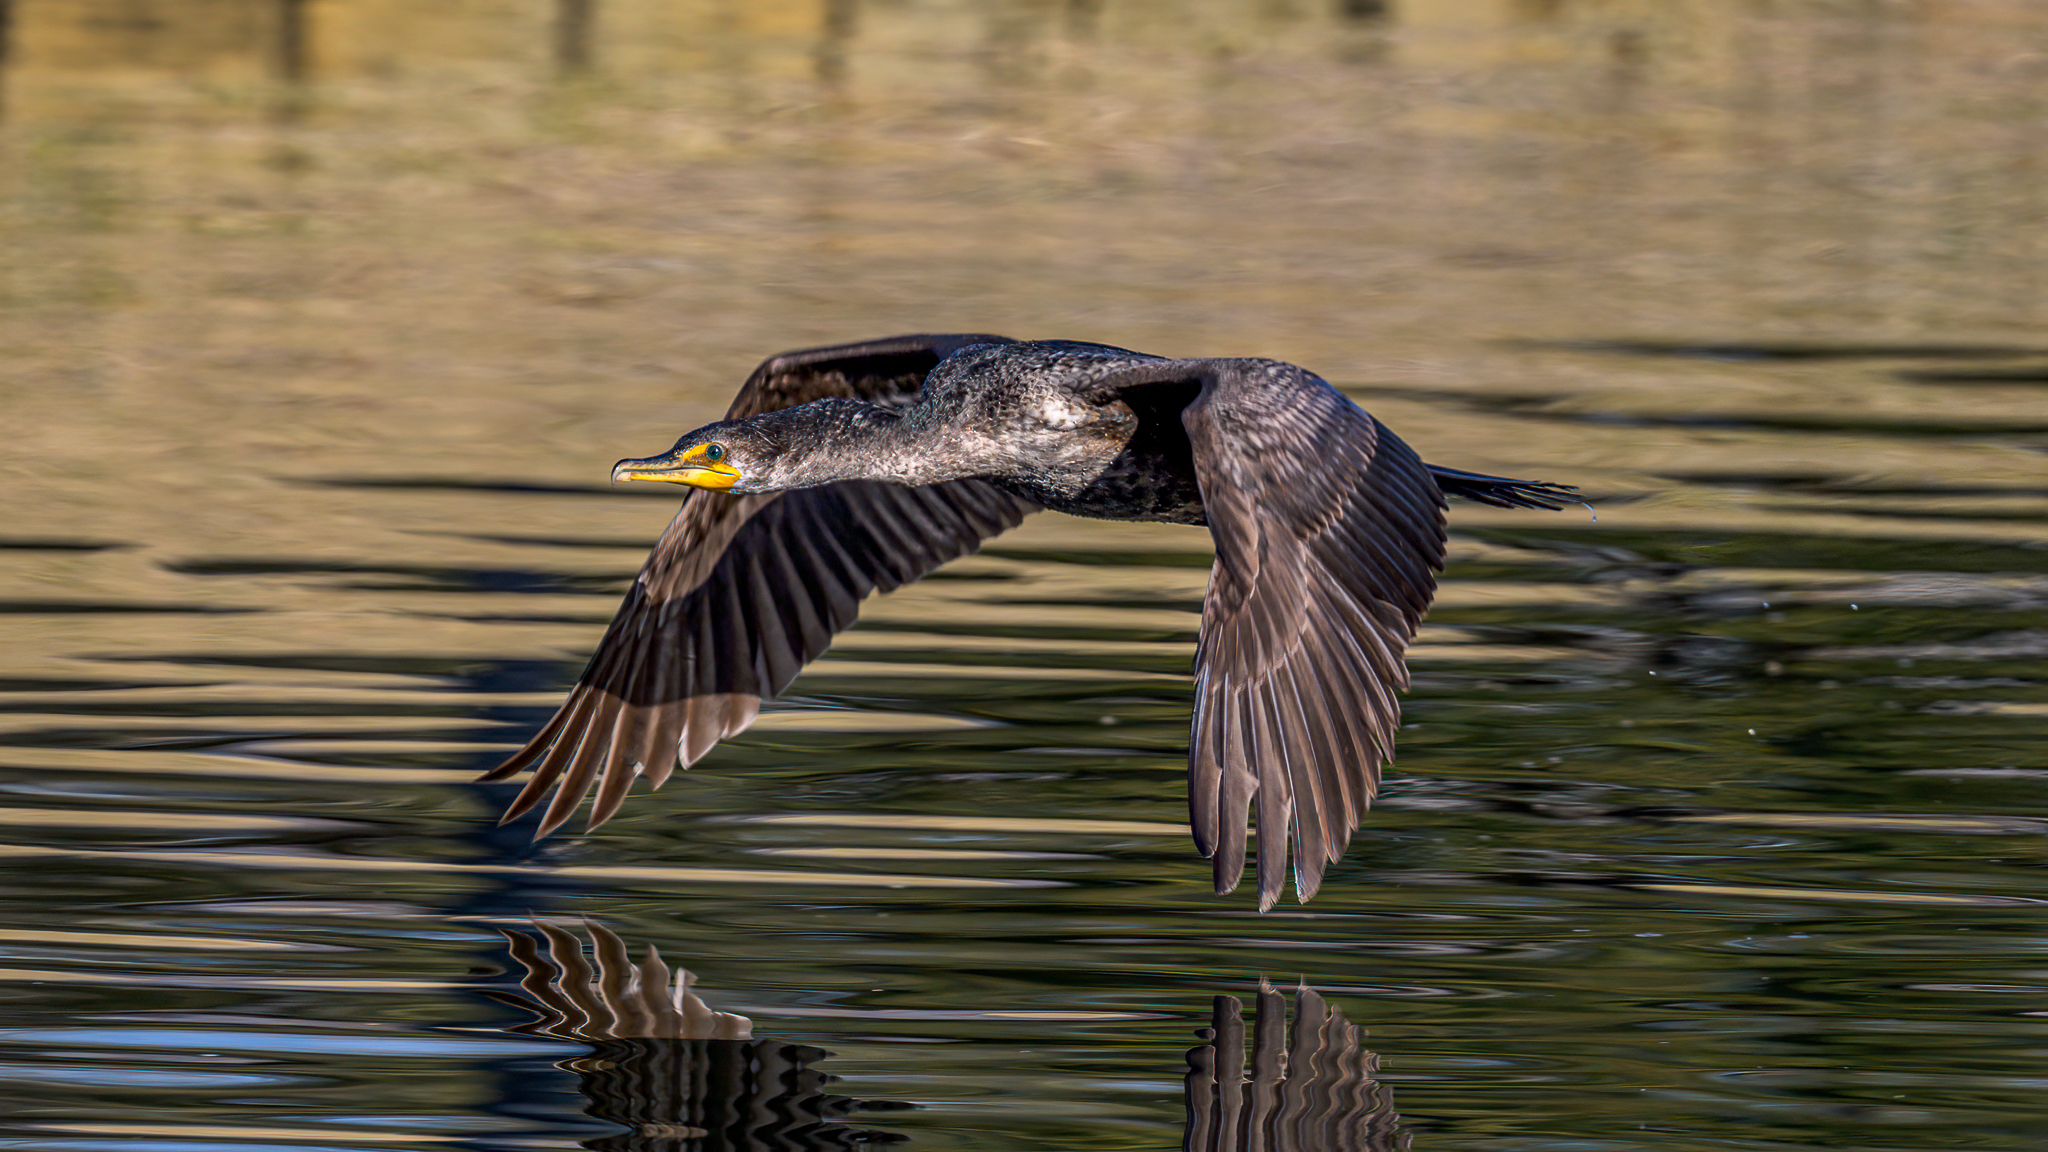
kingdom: Animalia
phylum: Chordata
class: Aves
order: Suliformes
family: Phalacrocoracidae
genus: Phalacrocorax
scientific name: Phalacrocorax auritus
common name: Double-crested cormorant
